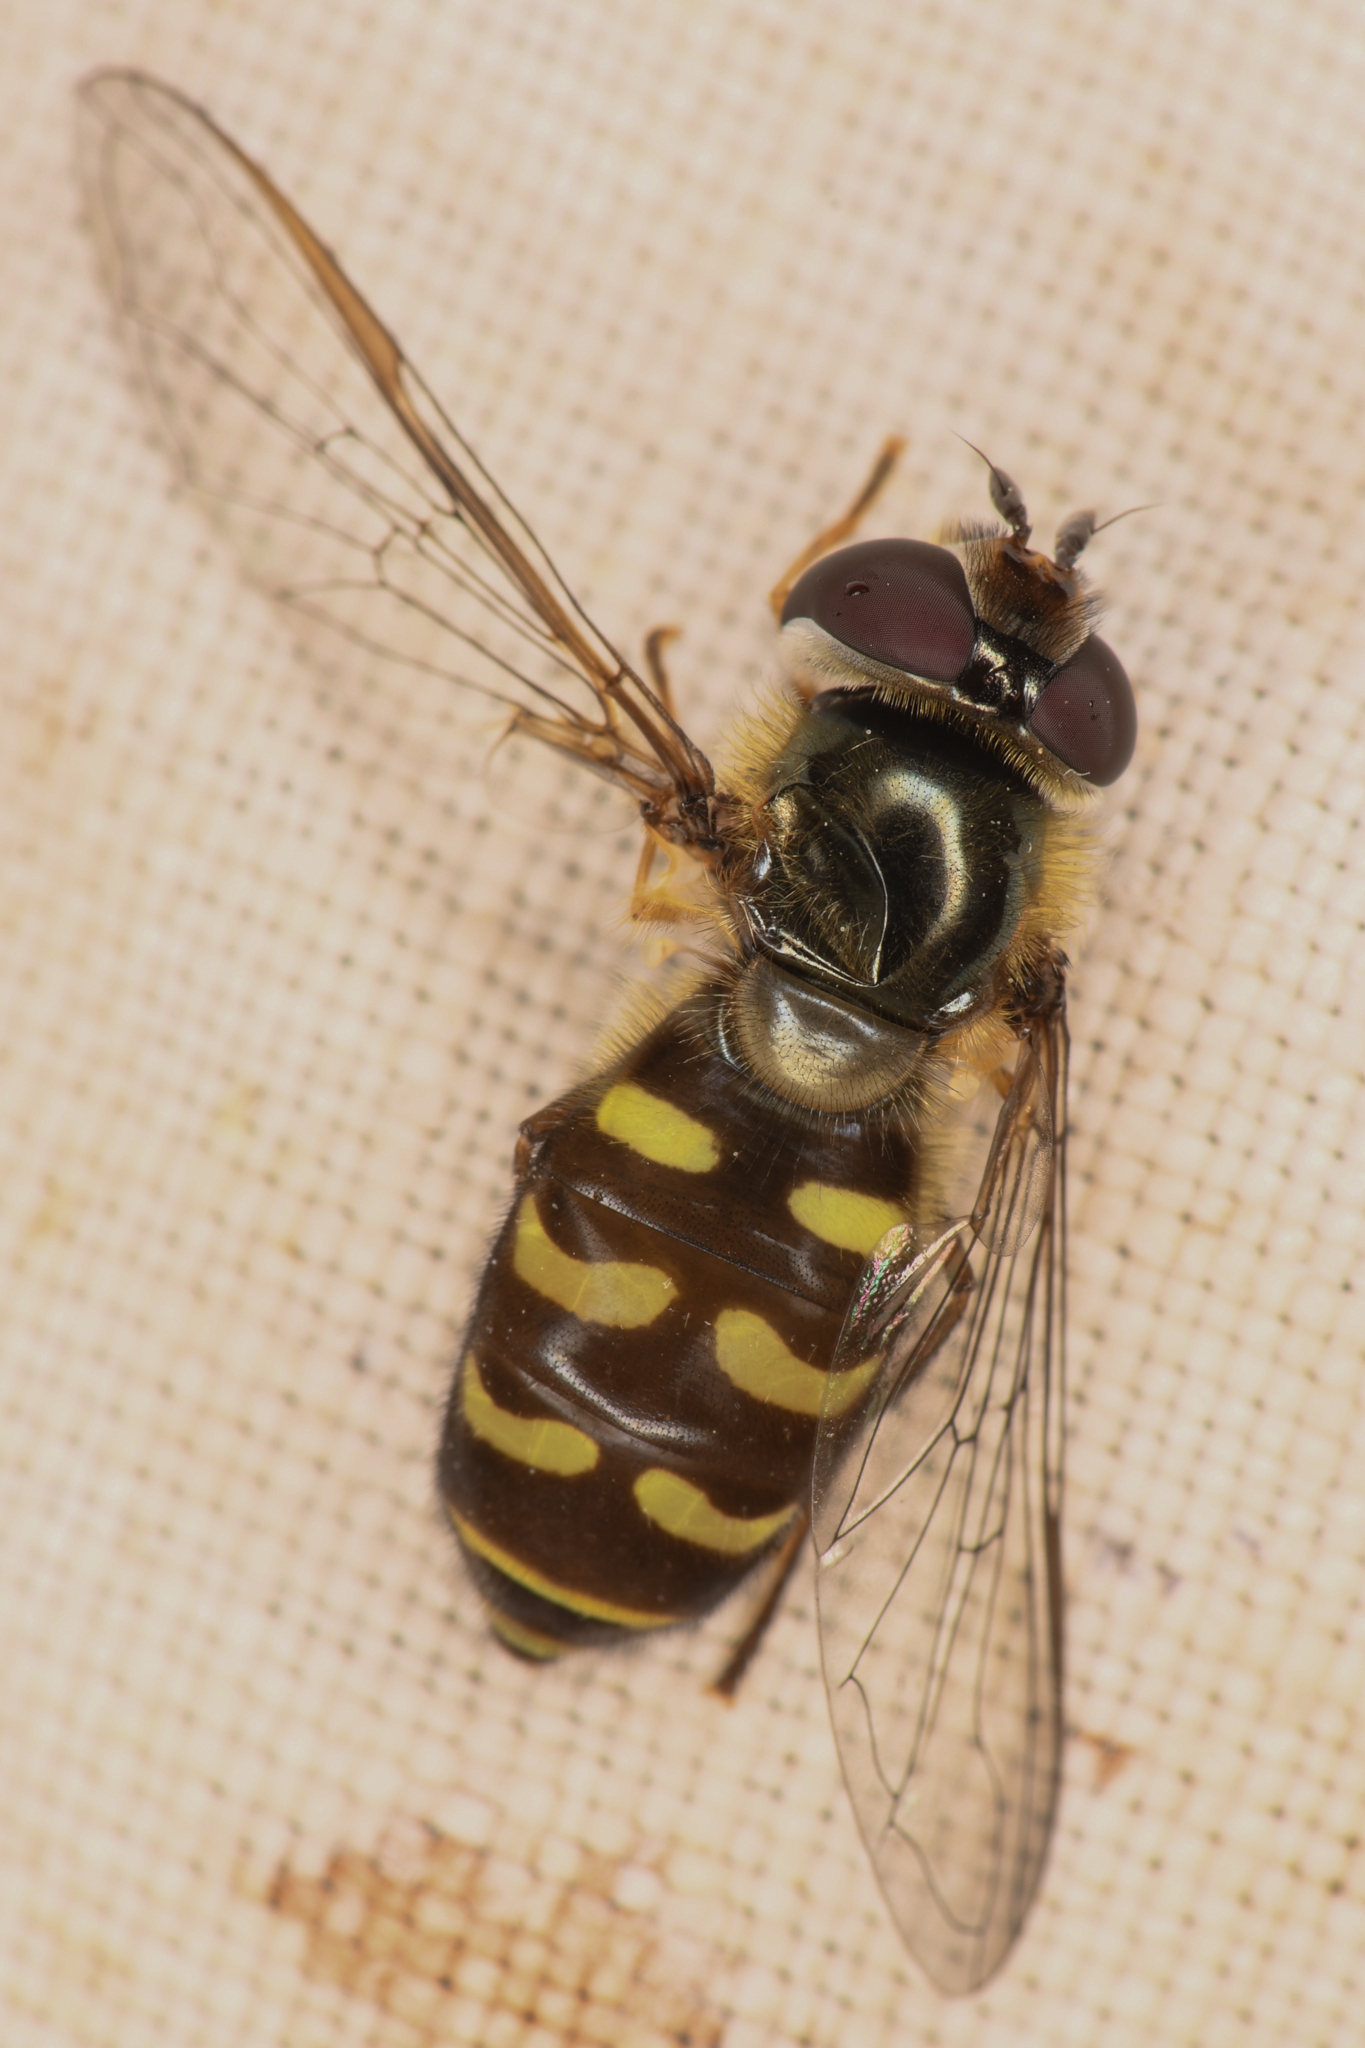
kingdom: Animalia
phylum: Arthropoda
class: Insecta
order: Diptera
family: Syrphidae
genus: Lapposyrphus
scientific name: Lapposyrphus lapponicus
